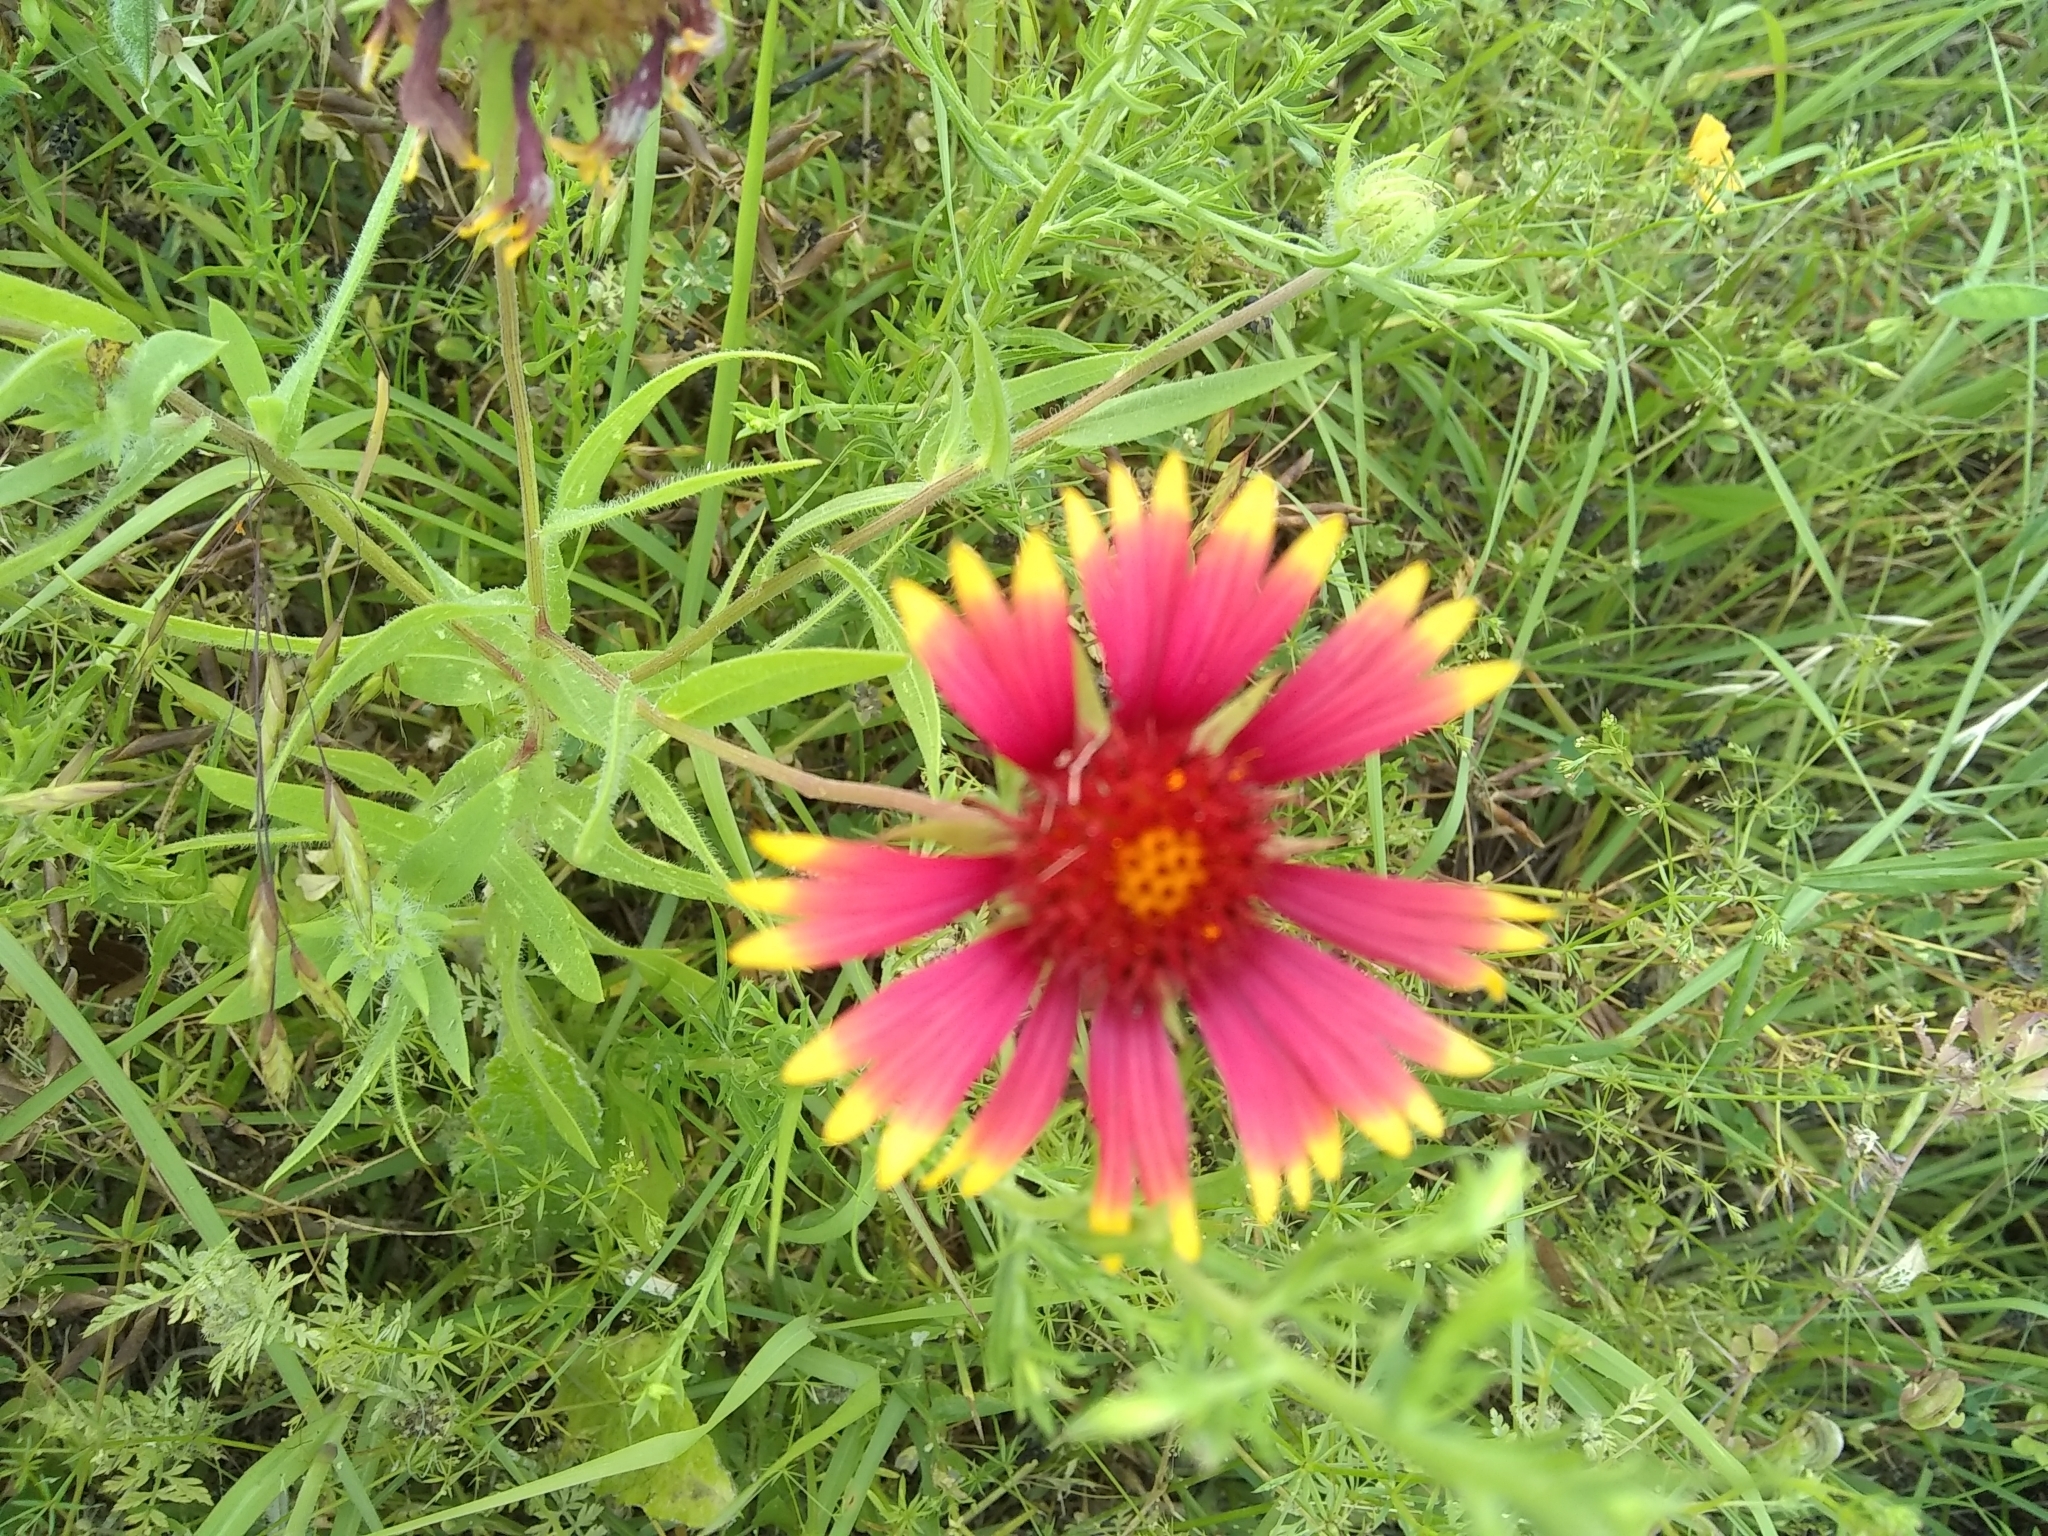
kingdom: Plantae
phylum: Tracheophyta
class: Magnoliopsida
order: Asterales
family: Asteraceae
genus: Gaillardia
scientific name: Gaillardia pulchella
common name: Firewheel
